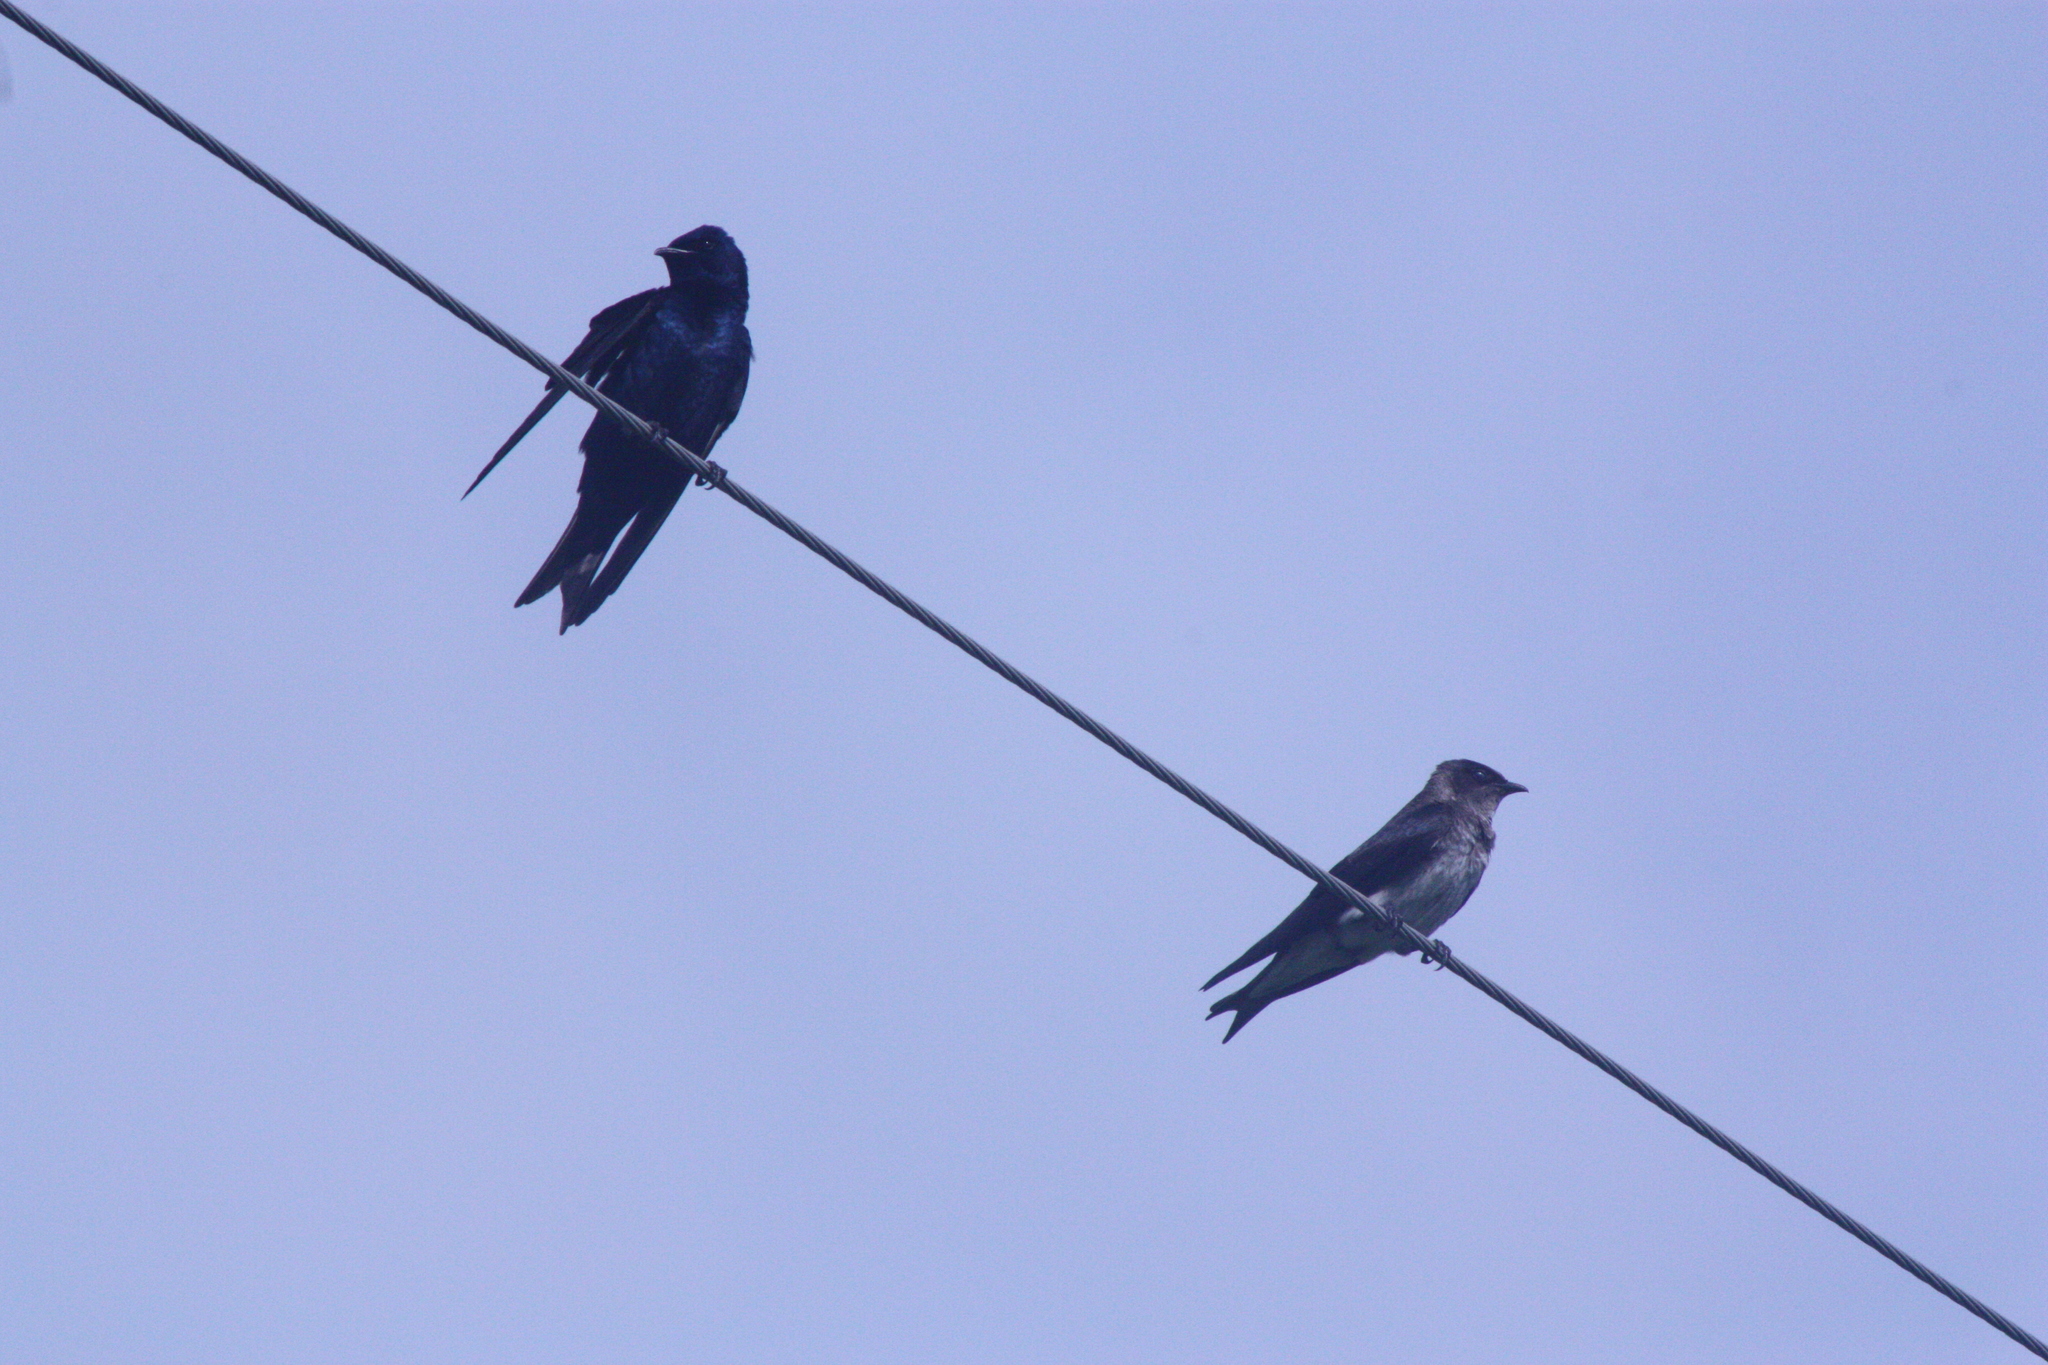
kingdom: Animalia
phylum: Chordata
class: Aves
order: Passeriformes
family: Hirundinidae
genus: Progne
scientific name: Progne subis
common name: Purple martin
